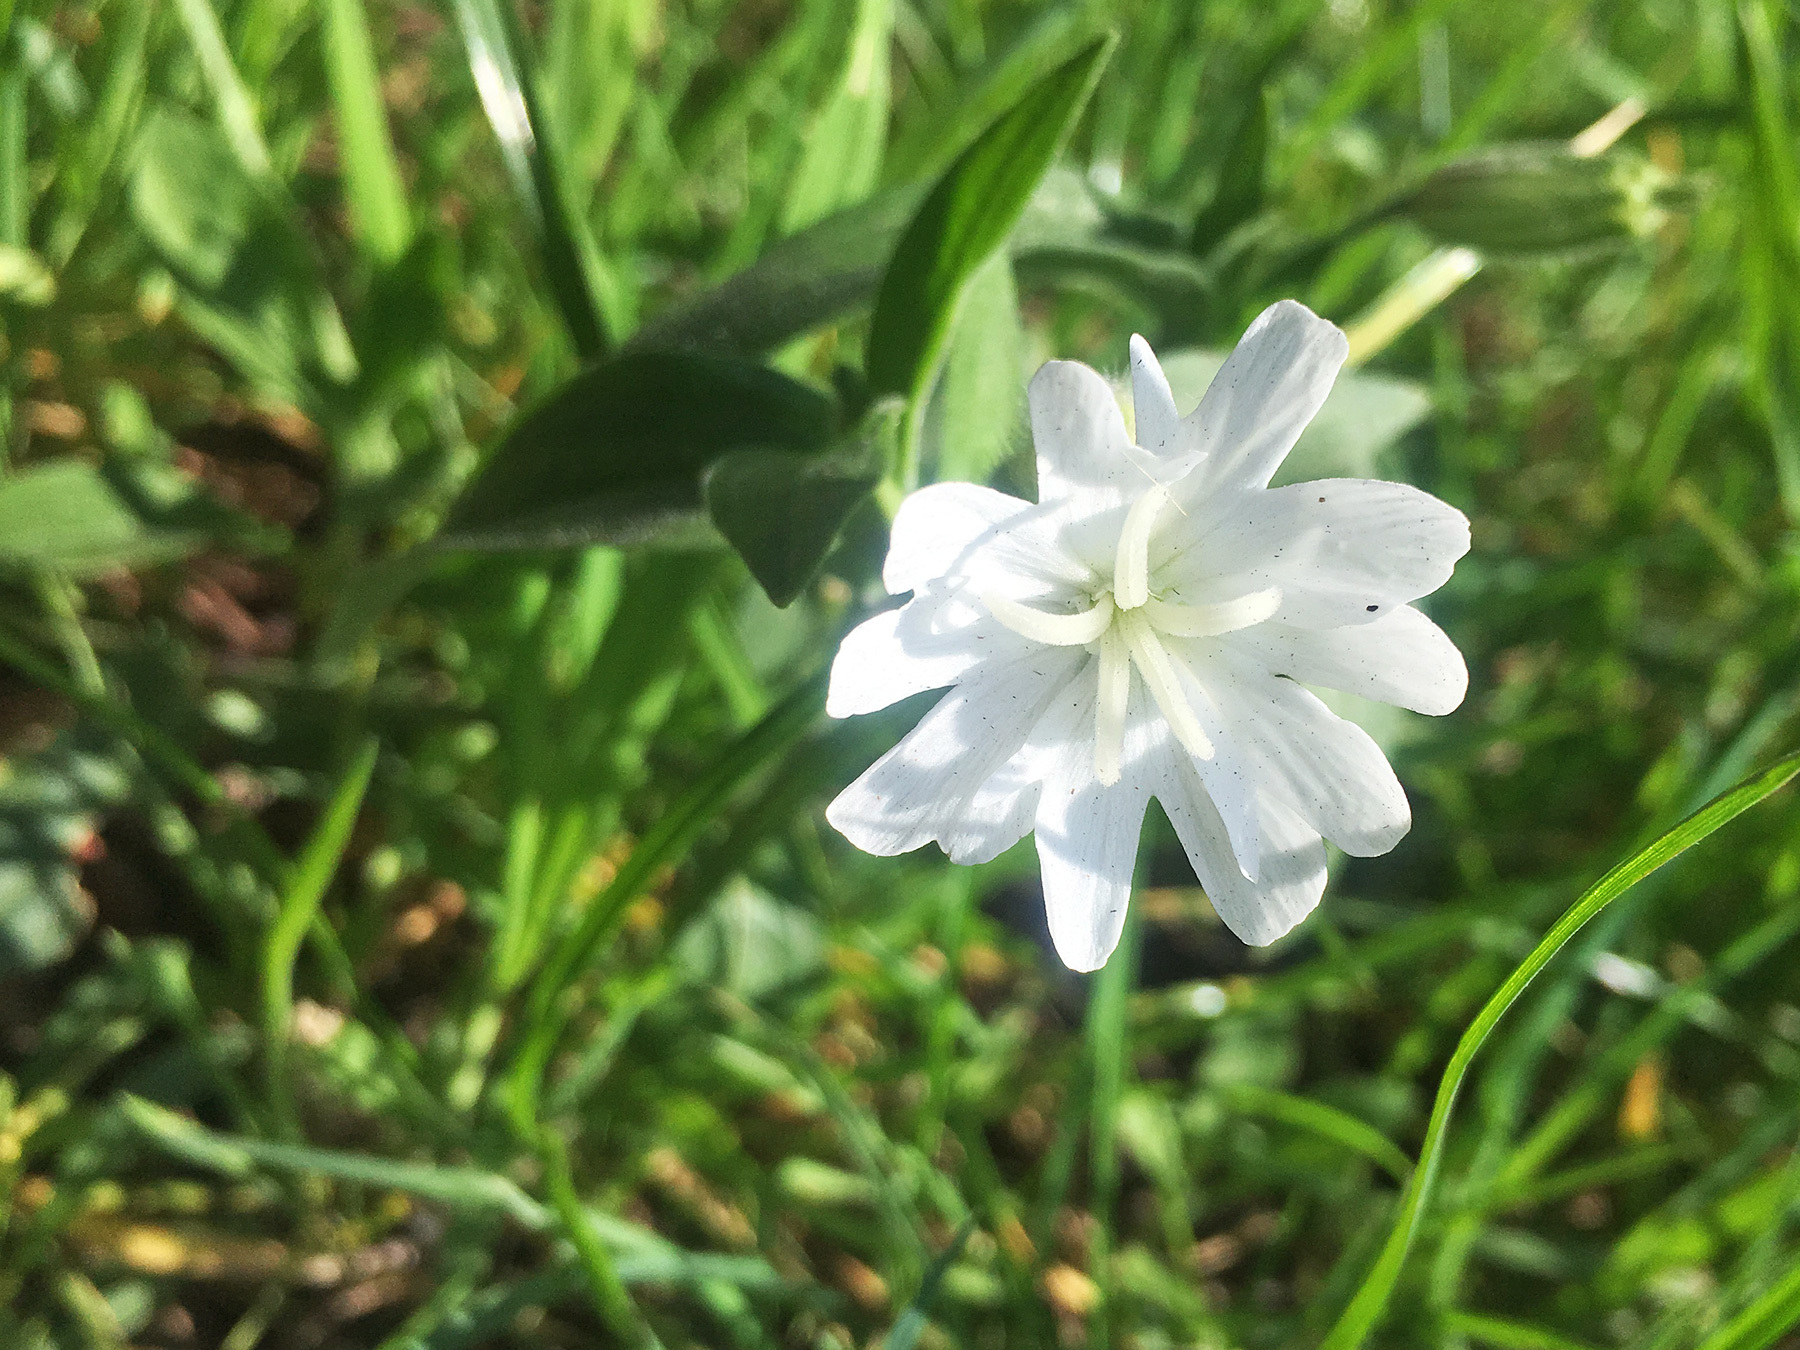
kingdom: Plantae
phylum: Tracheophyta
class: Magnoliopsida
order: Caryophyllales
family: Caryophyllaceae
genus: Silene
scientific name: Silene latifolia
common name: White campion
